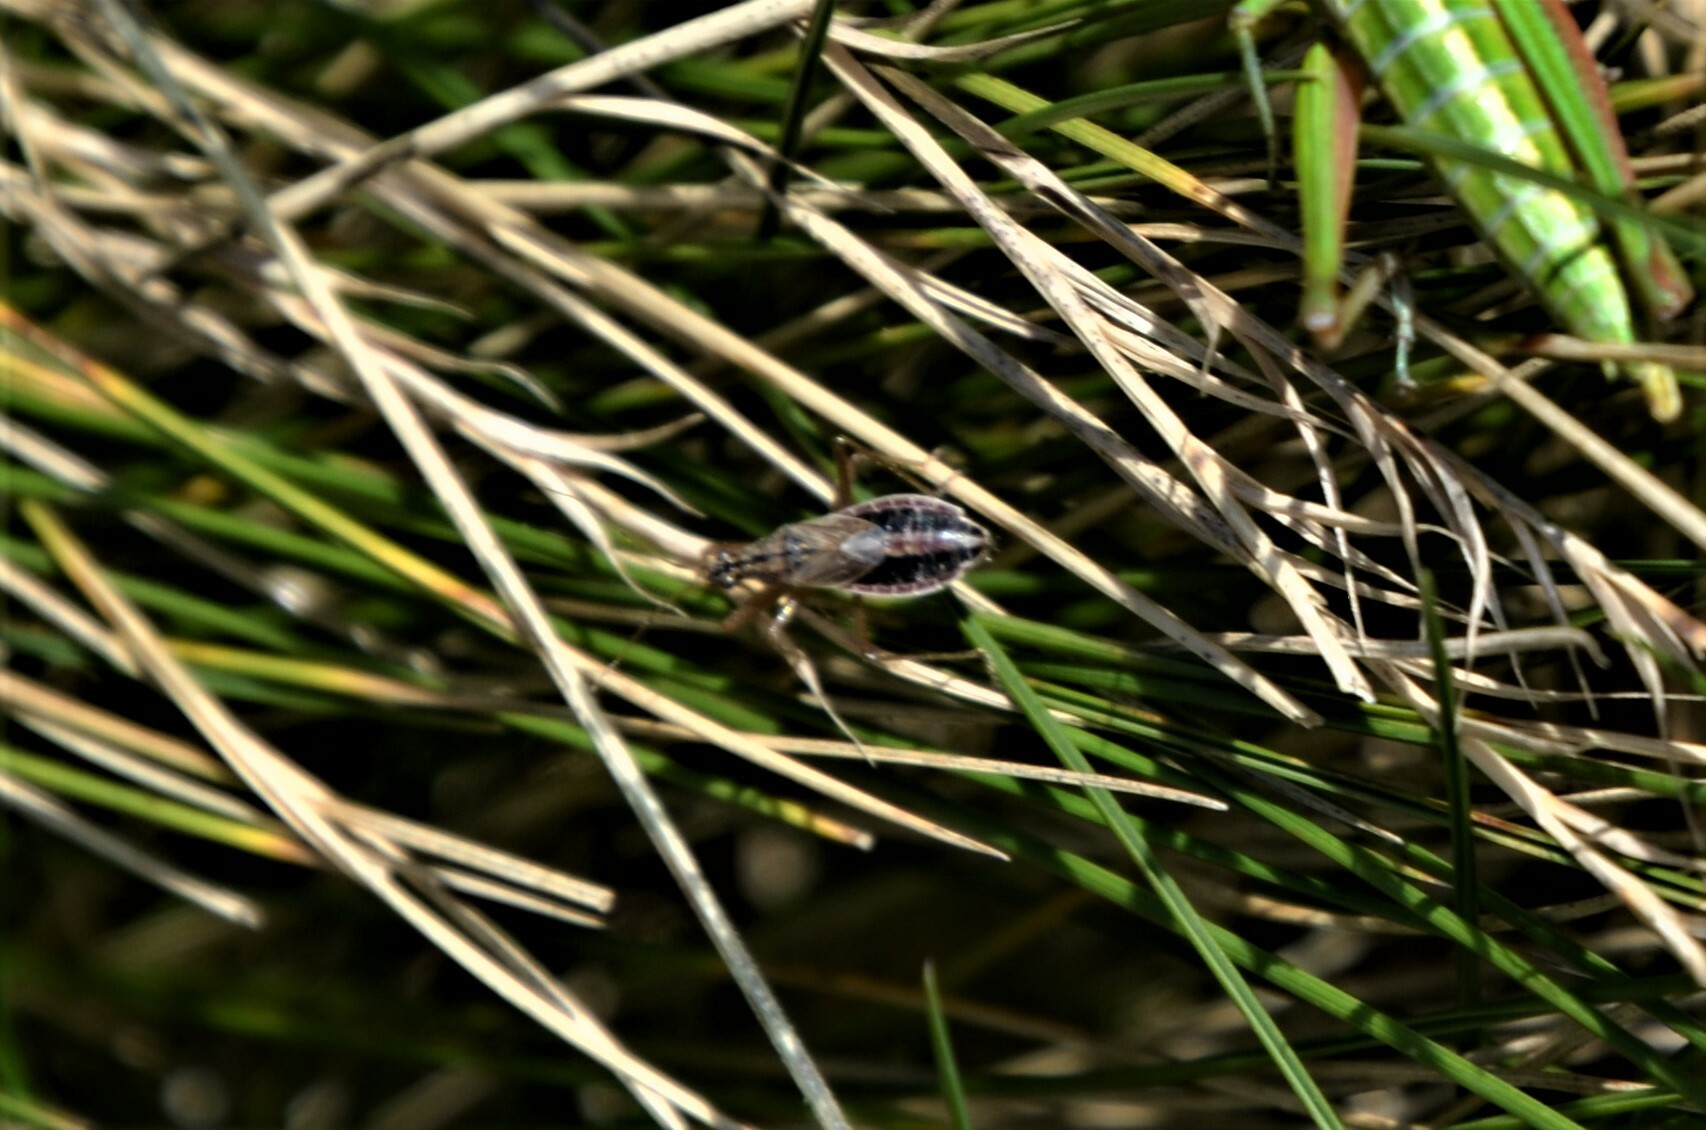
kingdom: Animalia
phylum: Arthropoda
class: Insecta
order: Hemiptera
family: Nabidae
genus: Nabis
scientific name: Nabis flavomarginatus
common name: Broad damselbug
